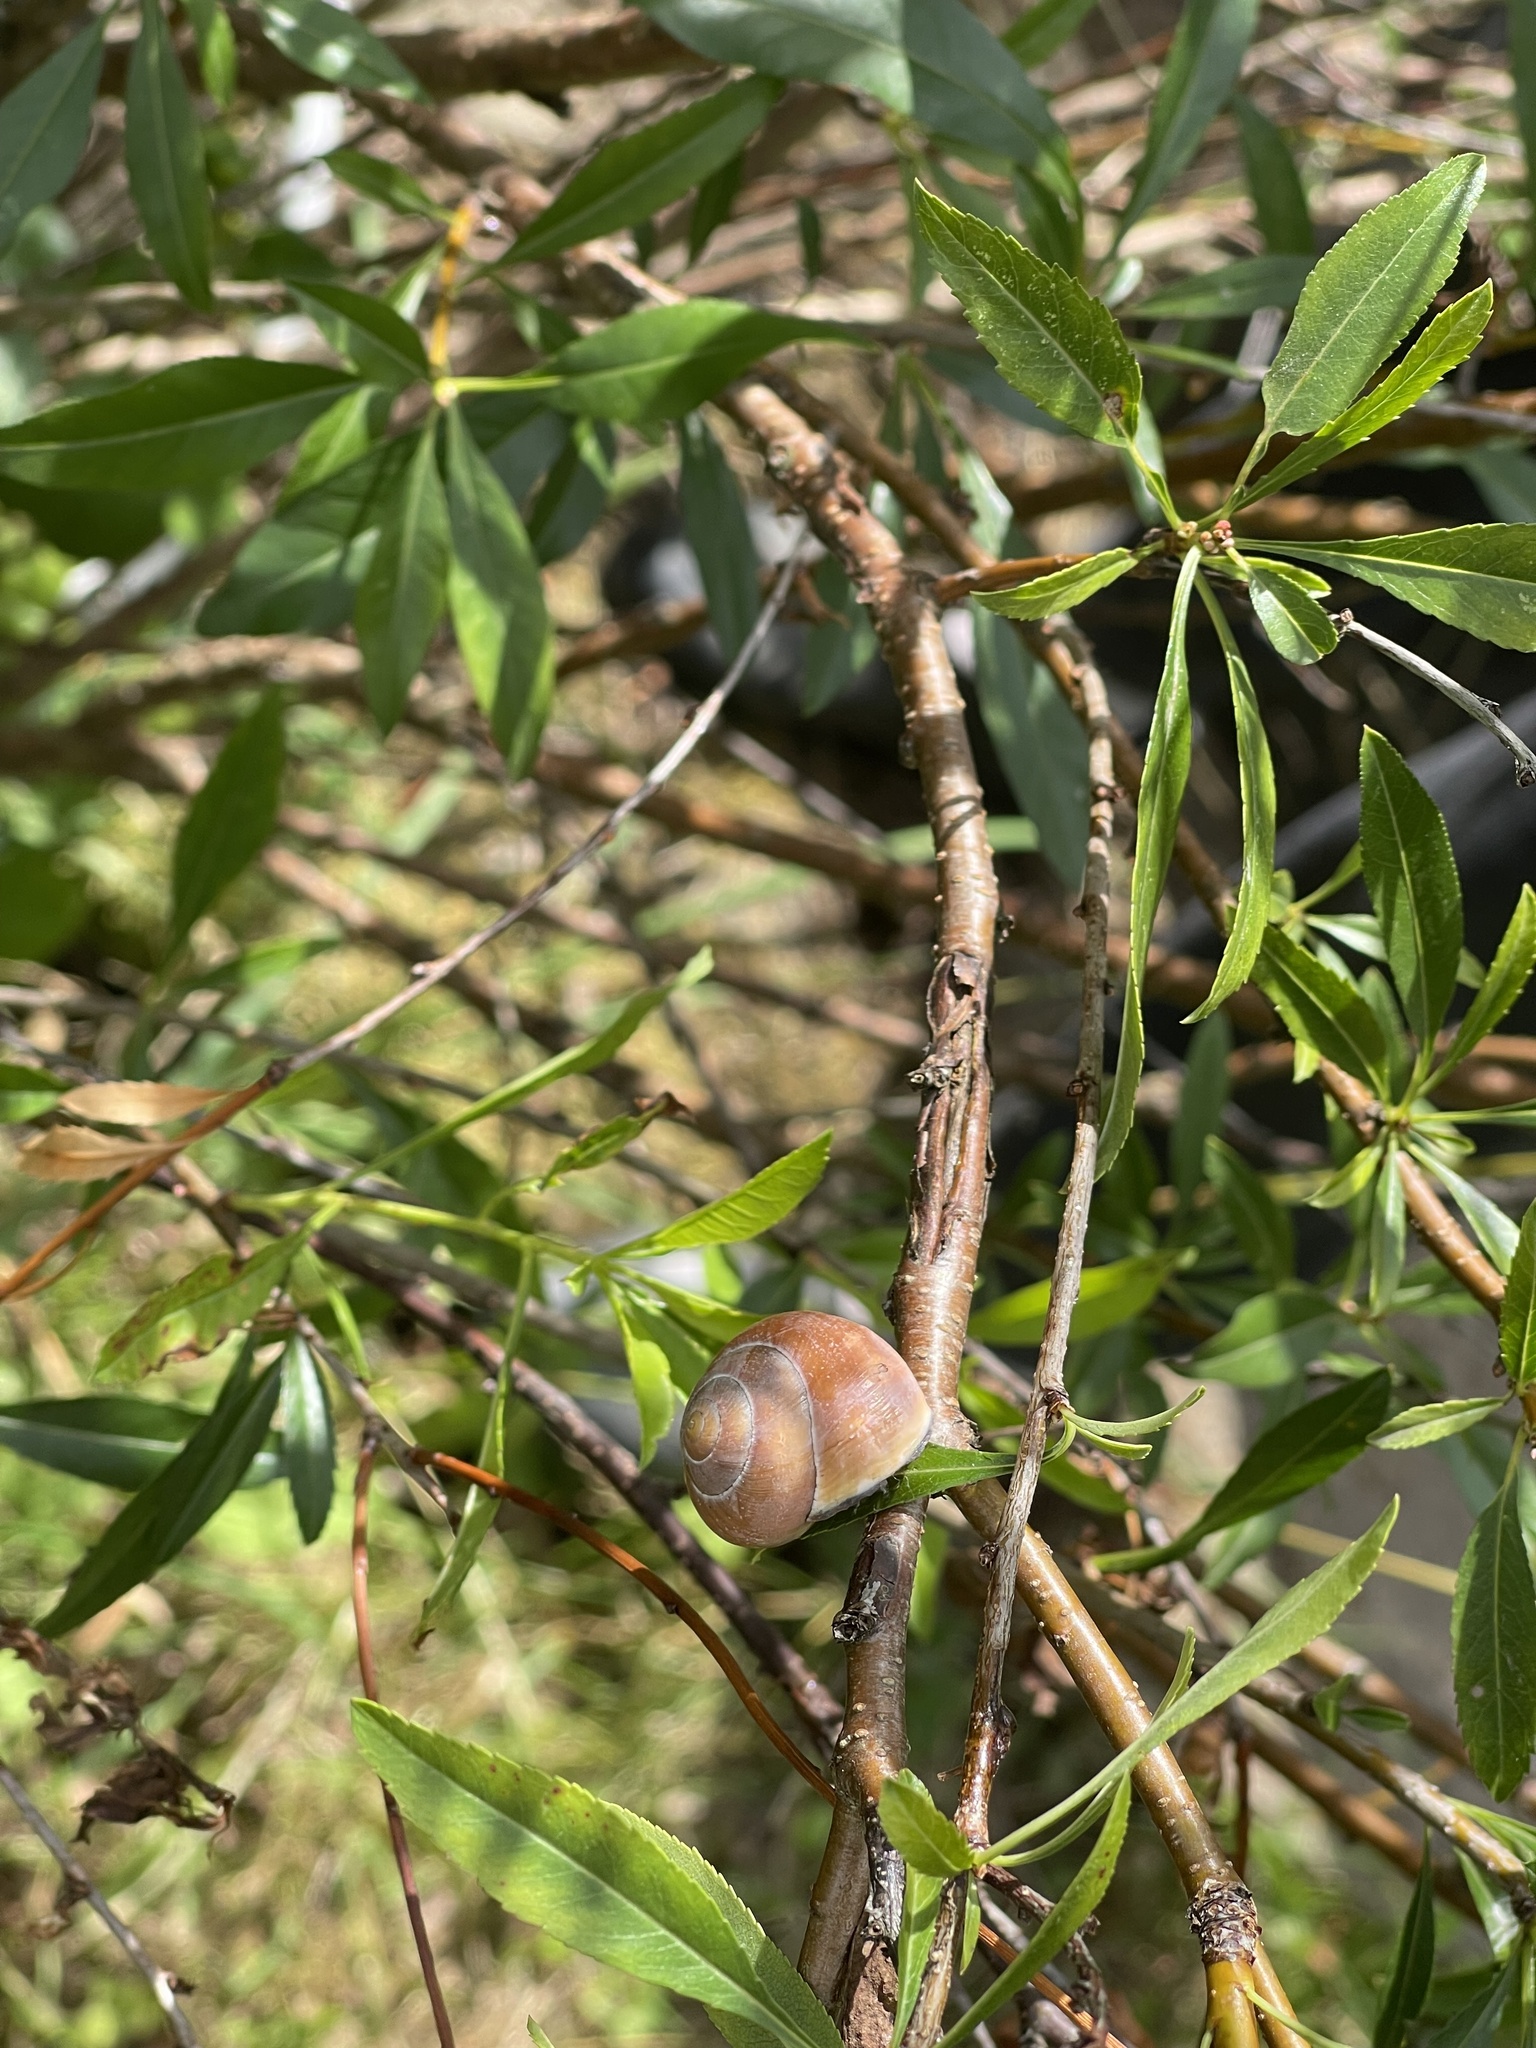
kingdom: Animalia
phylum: Mollusca
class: Gastropoda
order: Stylommatophora
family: Helicidae
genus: Cepaea
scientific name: Cepaea nemoralis
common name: Grovesnail
